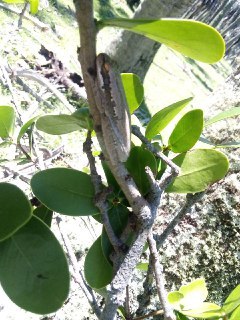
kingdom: Animalia
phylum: Chordata
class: Amphibia
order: Anura
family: Hylidae
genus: Boana
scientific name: Boana pulchella
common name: Montevideo treefrog
